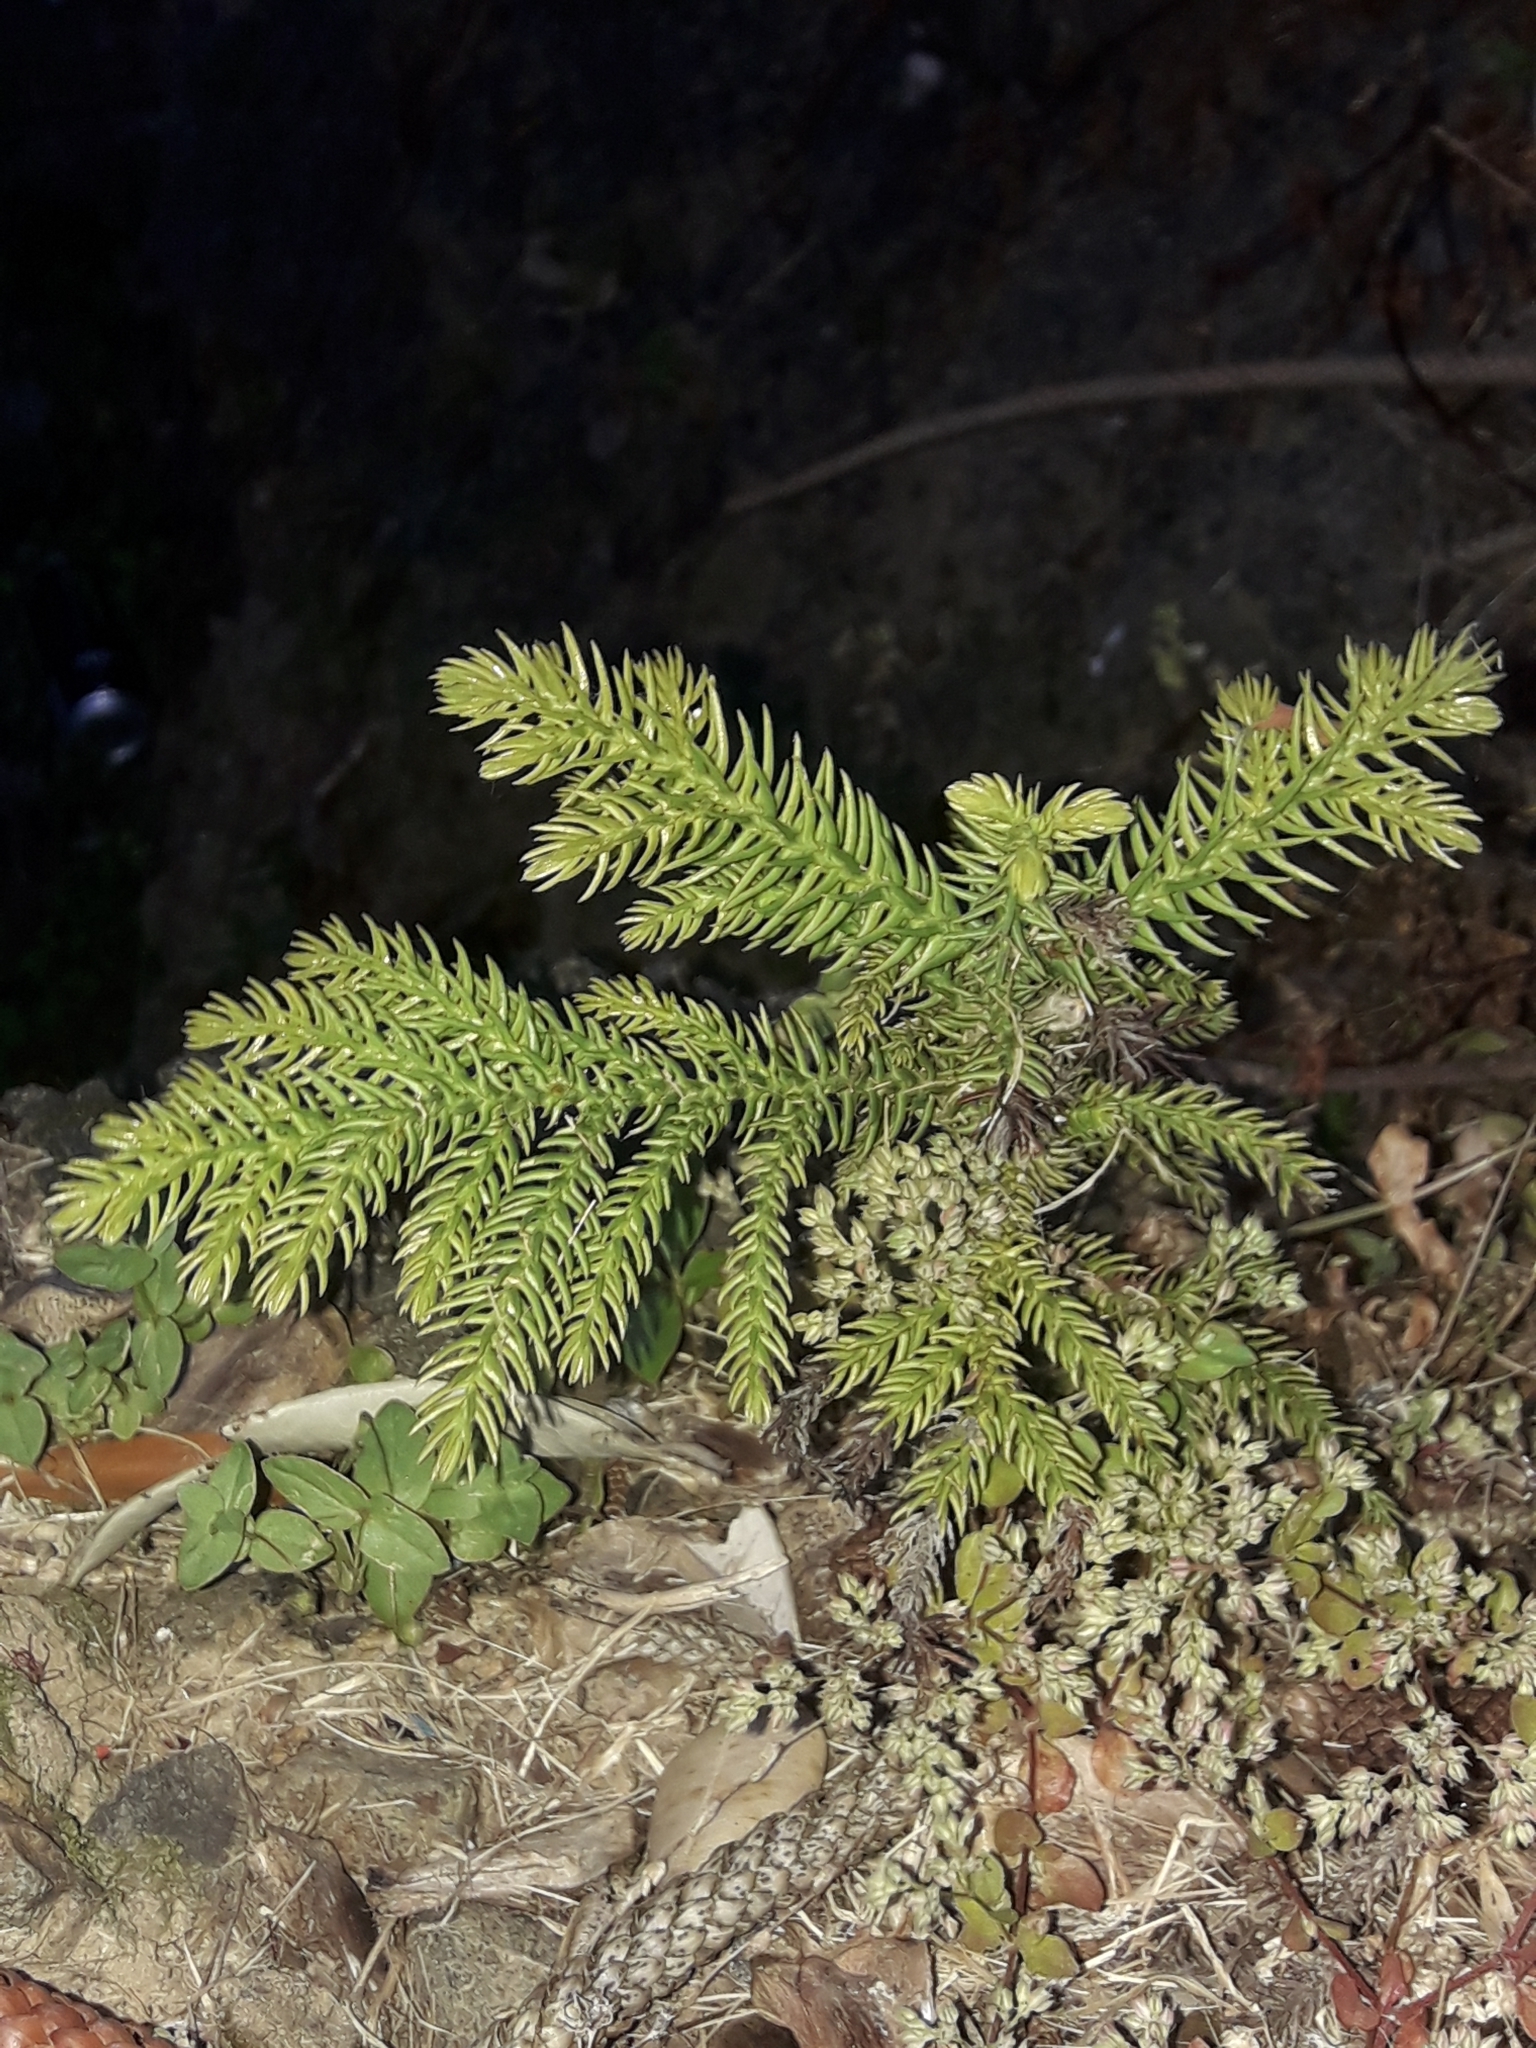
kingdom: Plantae
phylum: Tracheophyta
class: Pinopsida
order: Pinales
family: Araucariaceae
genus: Araucaria
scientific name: Araucaria heterophylla
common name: Norfolk island pine
